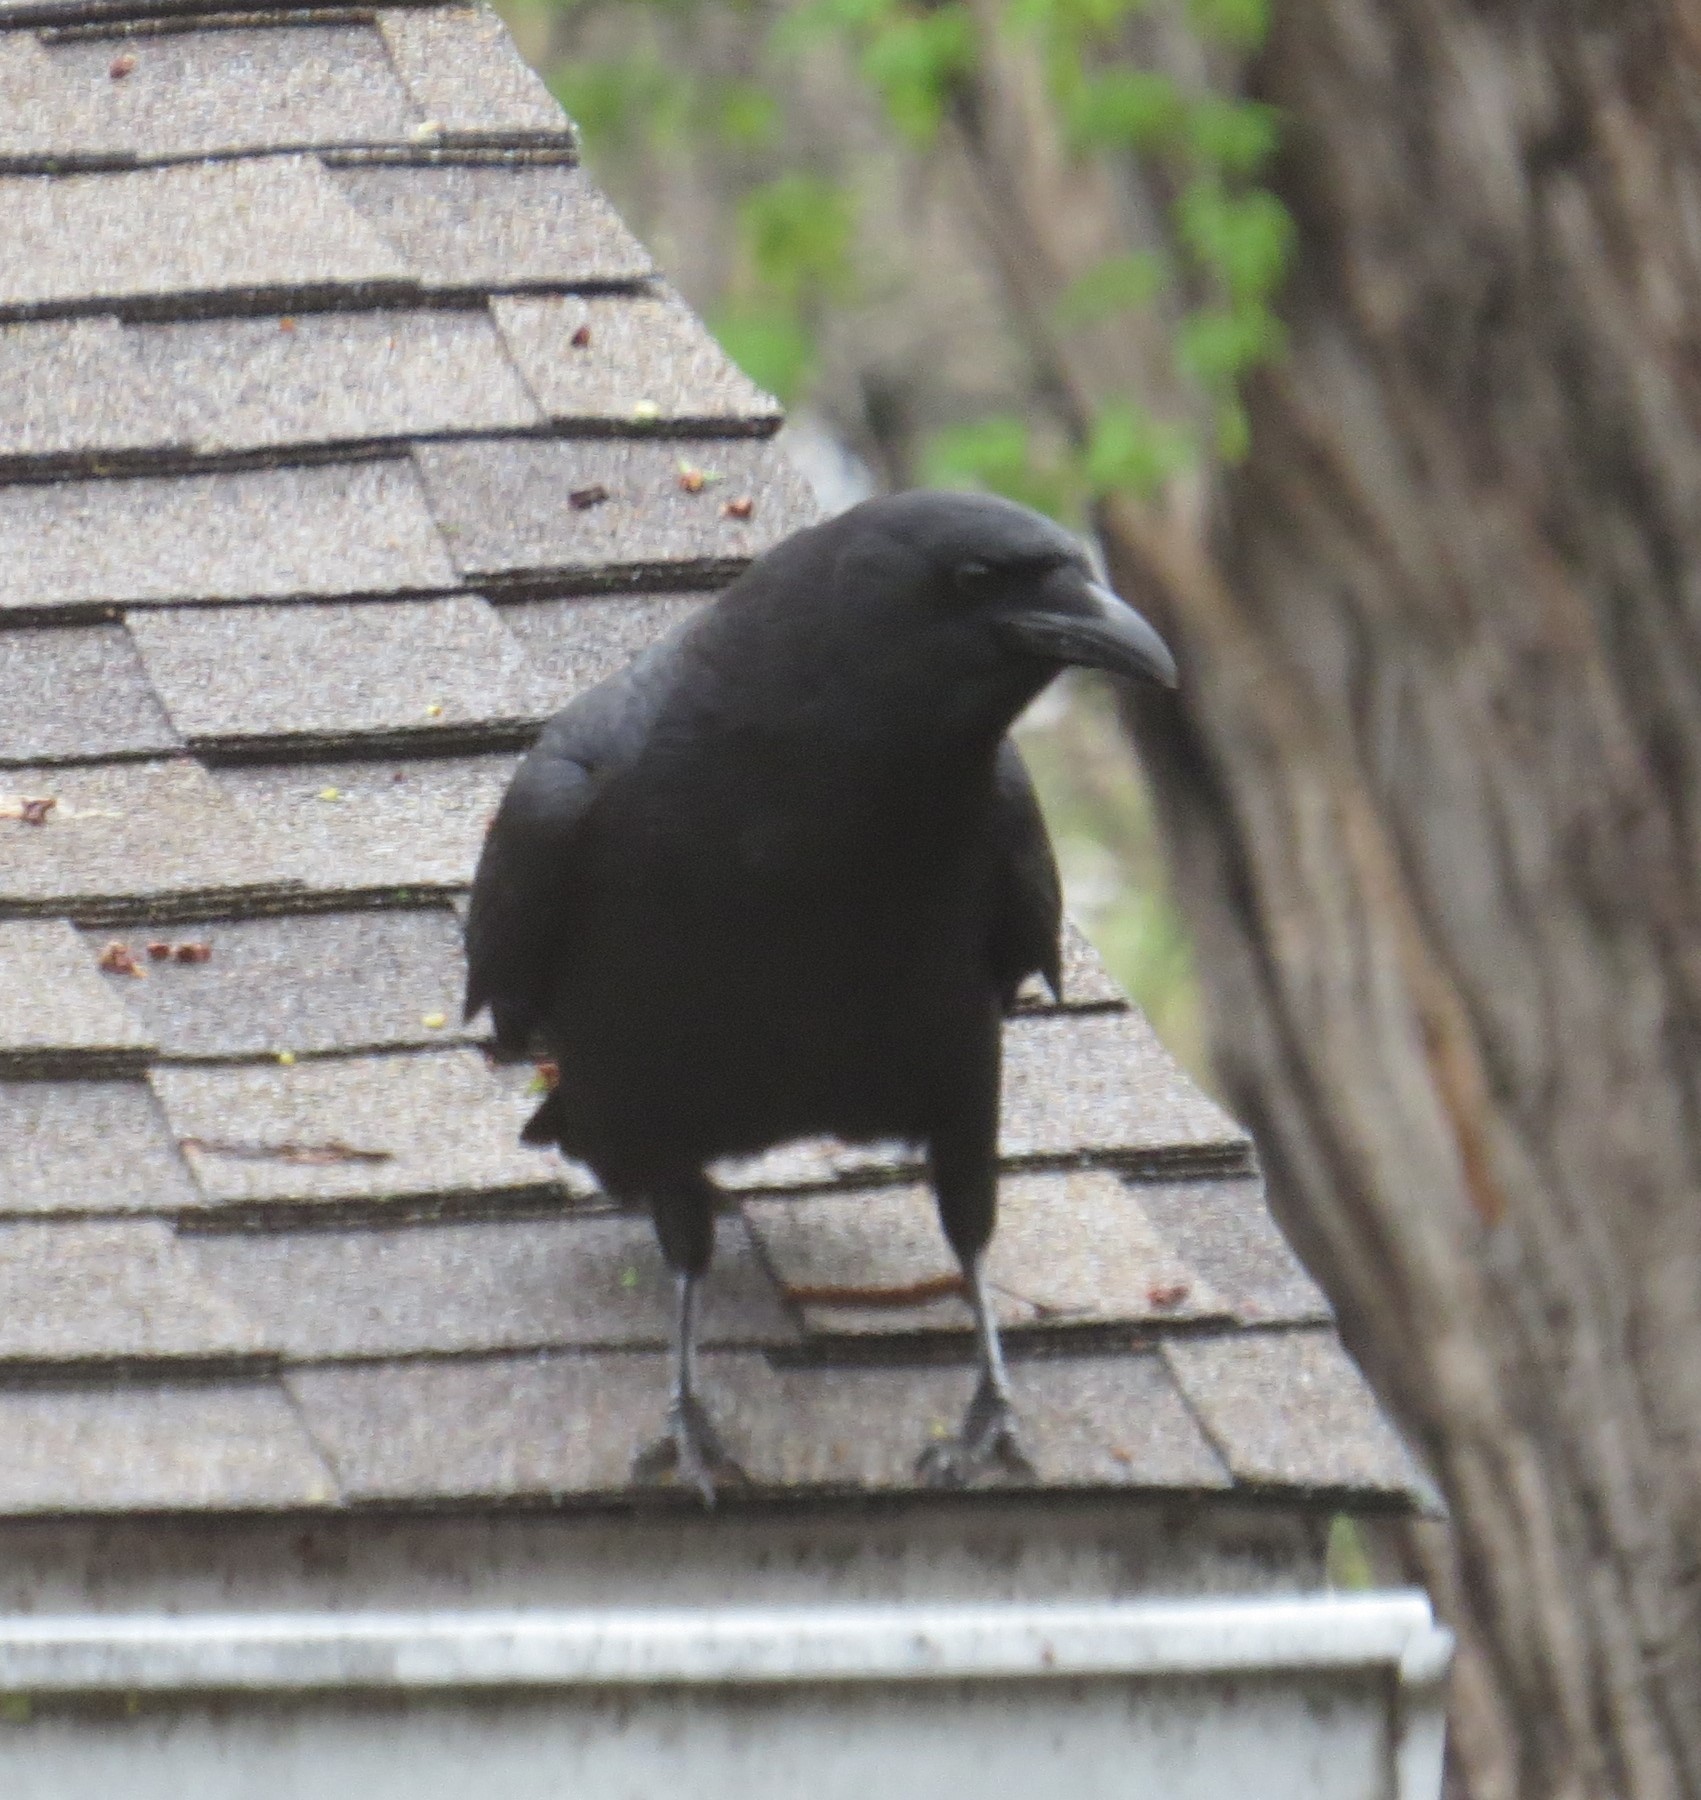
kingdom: Animalia
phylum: Chordata
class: Aves
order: Passeriformes
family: Corvidae
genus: Corvus
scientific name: Corvus brachyrhynchos
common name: American crow
